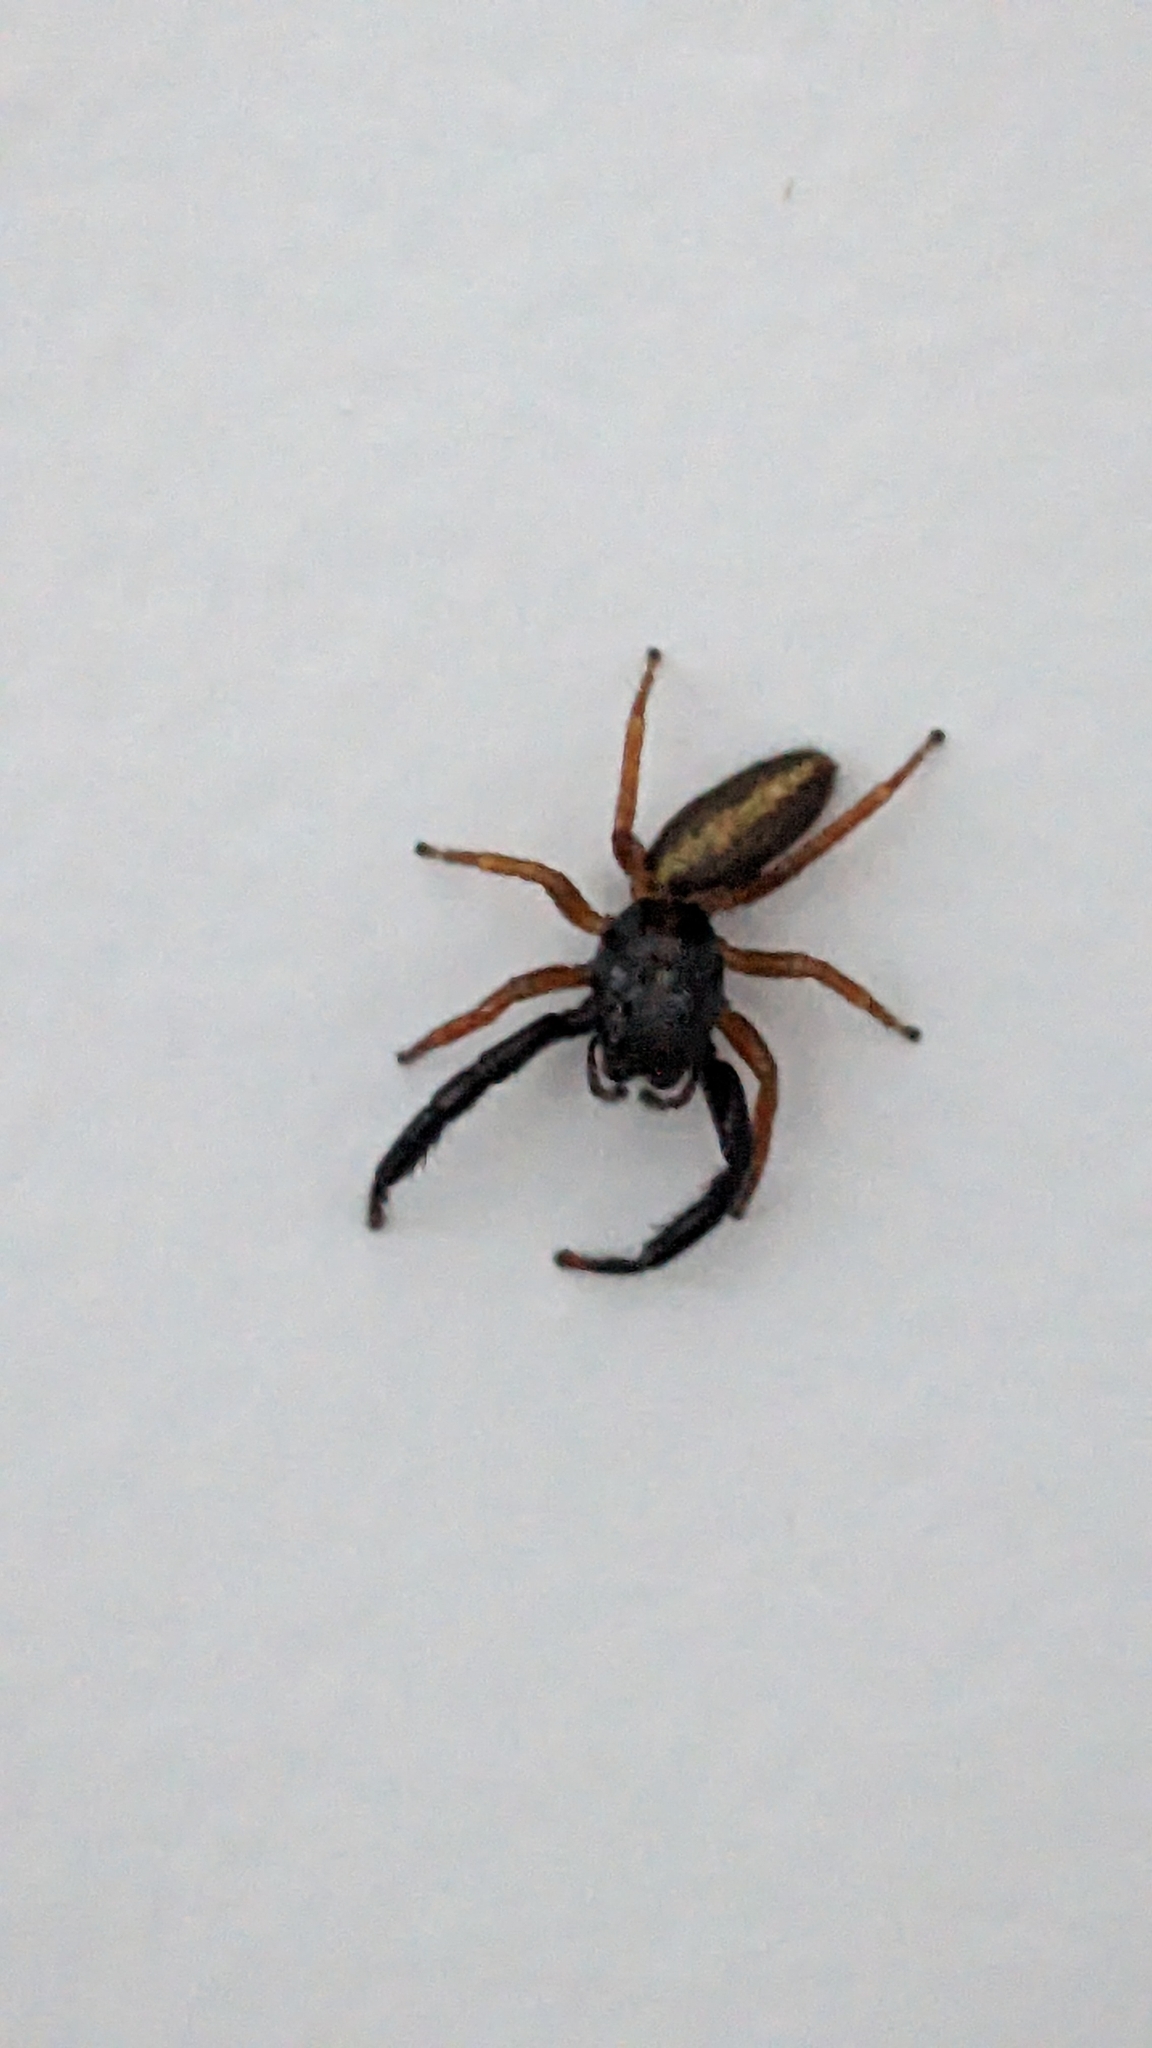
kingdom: Animalia
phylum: Arthropoda
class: Arachnida
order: Araneae
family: Salticidae
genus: Trite
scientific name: Trite planiceps
